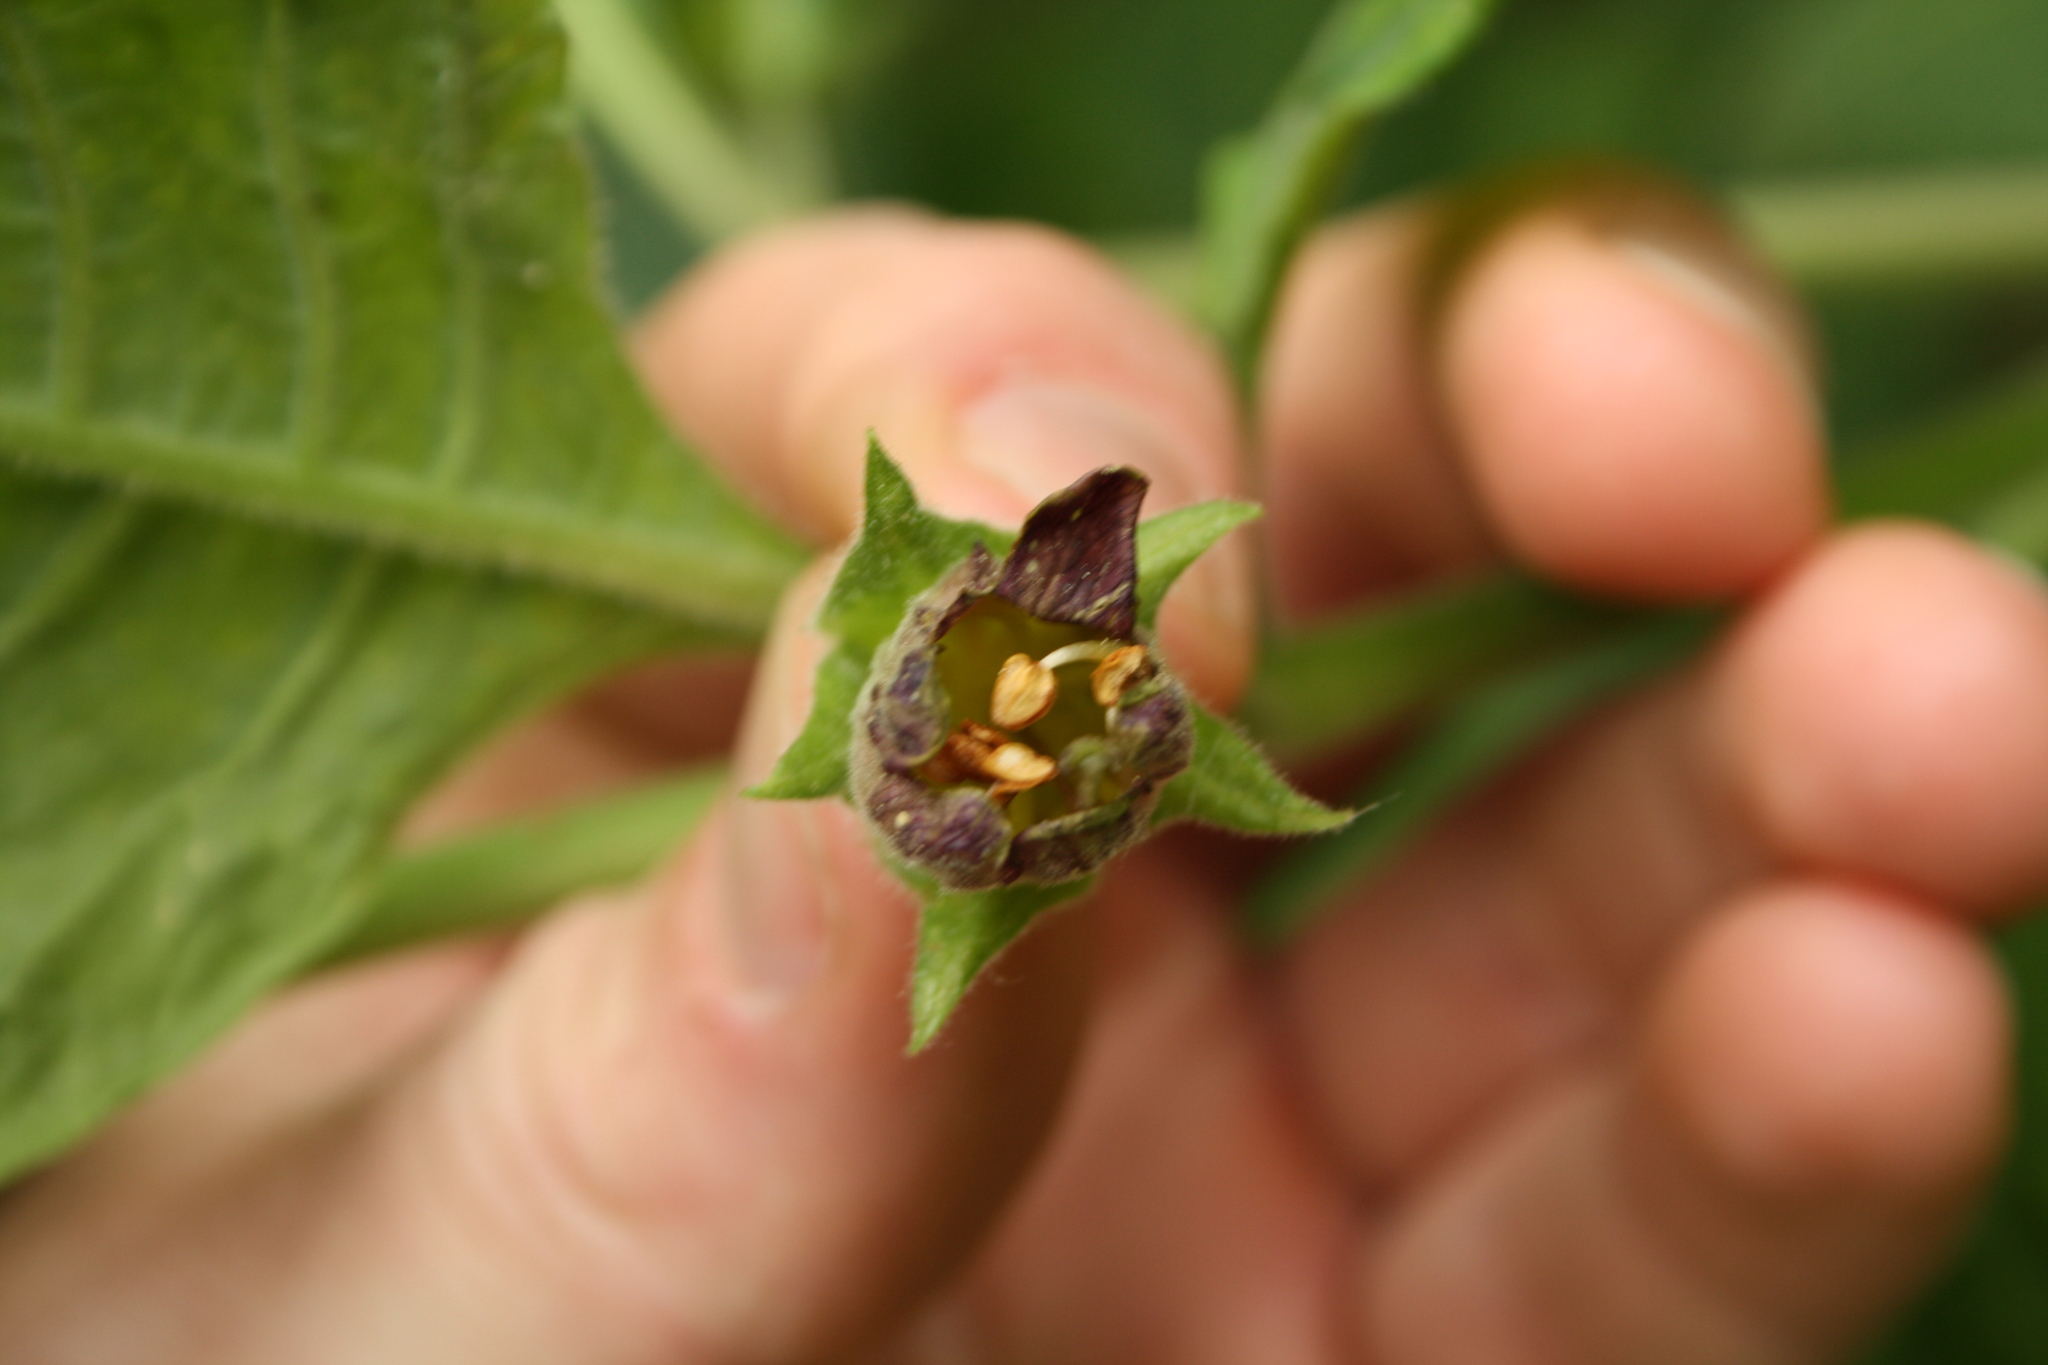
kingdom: Plantae
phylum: Tracheophyta
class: Magnoliopsida
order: Solanales
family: Solanaceae
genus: Atropa
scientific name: Atropa belladonna
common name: Deadly nightshade
